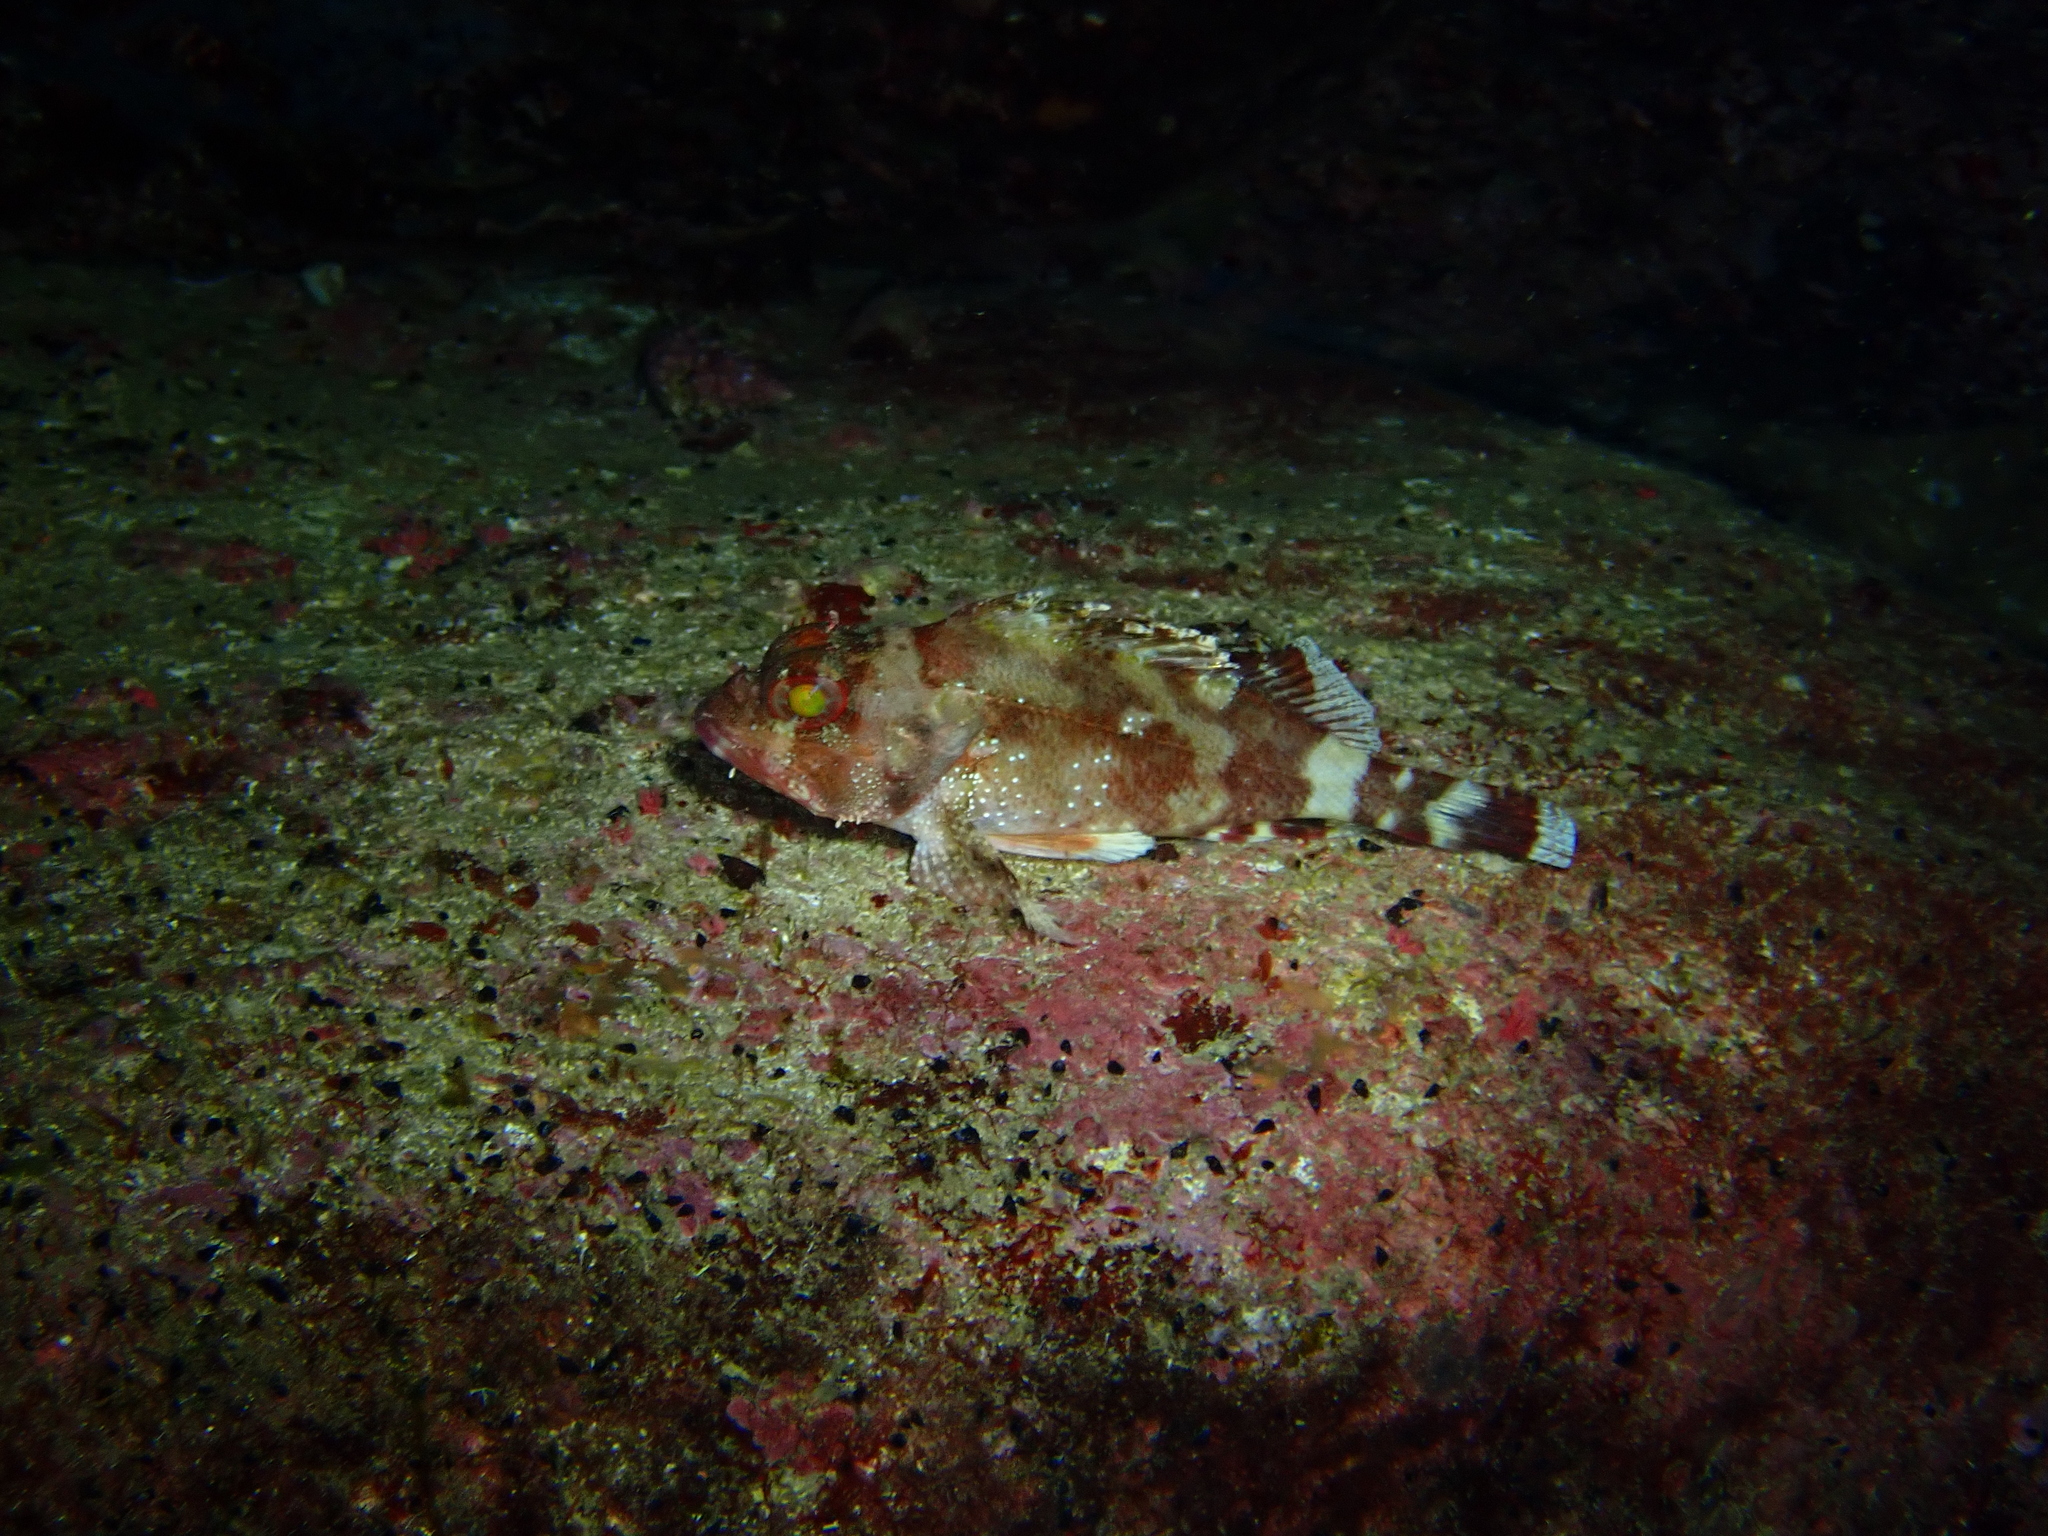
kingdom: Animalia
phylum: Chordata
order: Scorpaeniformes
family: Scorpaenidae
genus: Scorpaena
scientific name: Scorpaena maderensis
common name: Madeira rockfish
